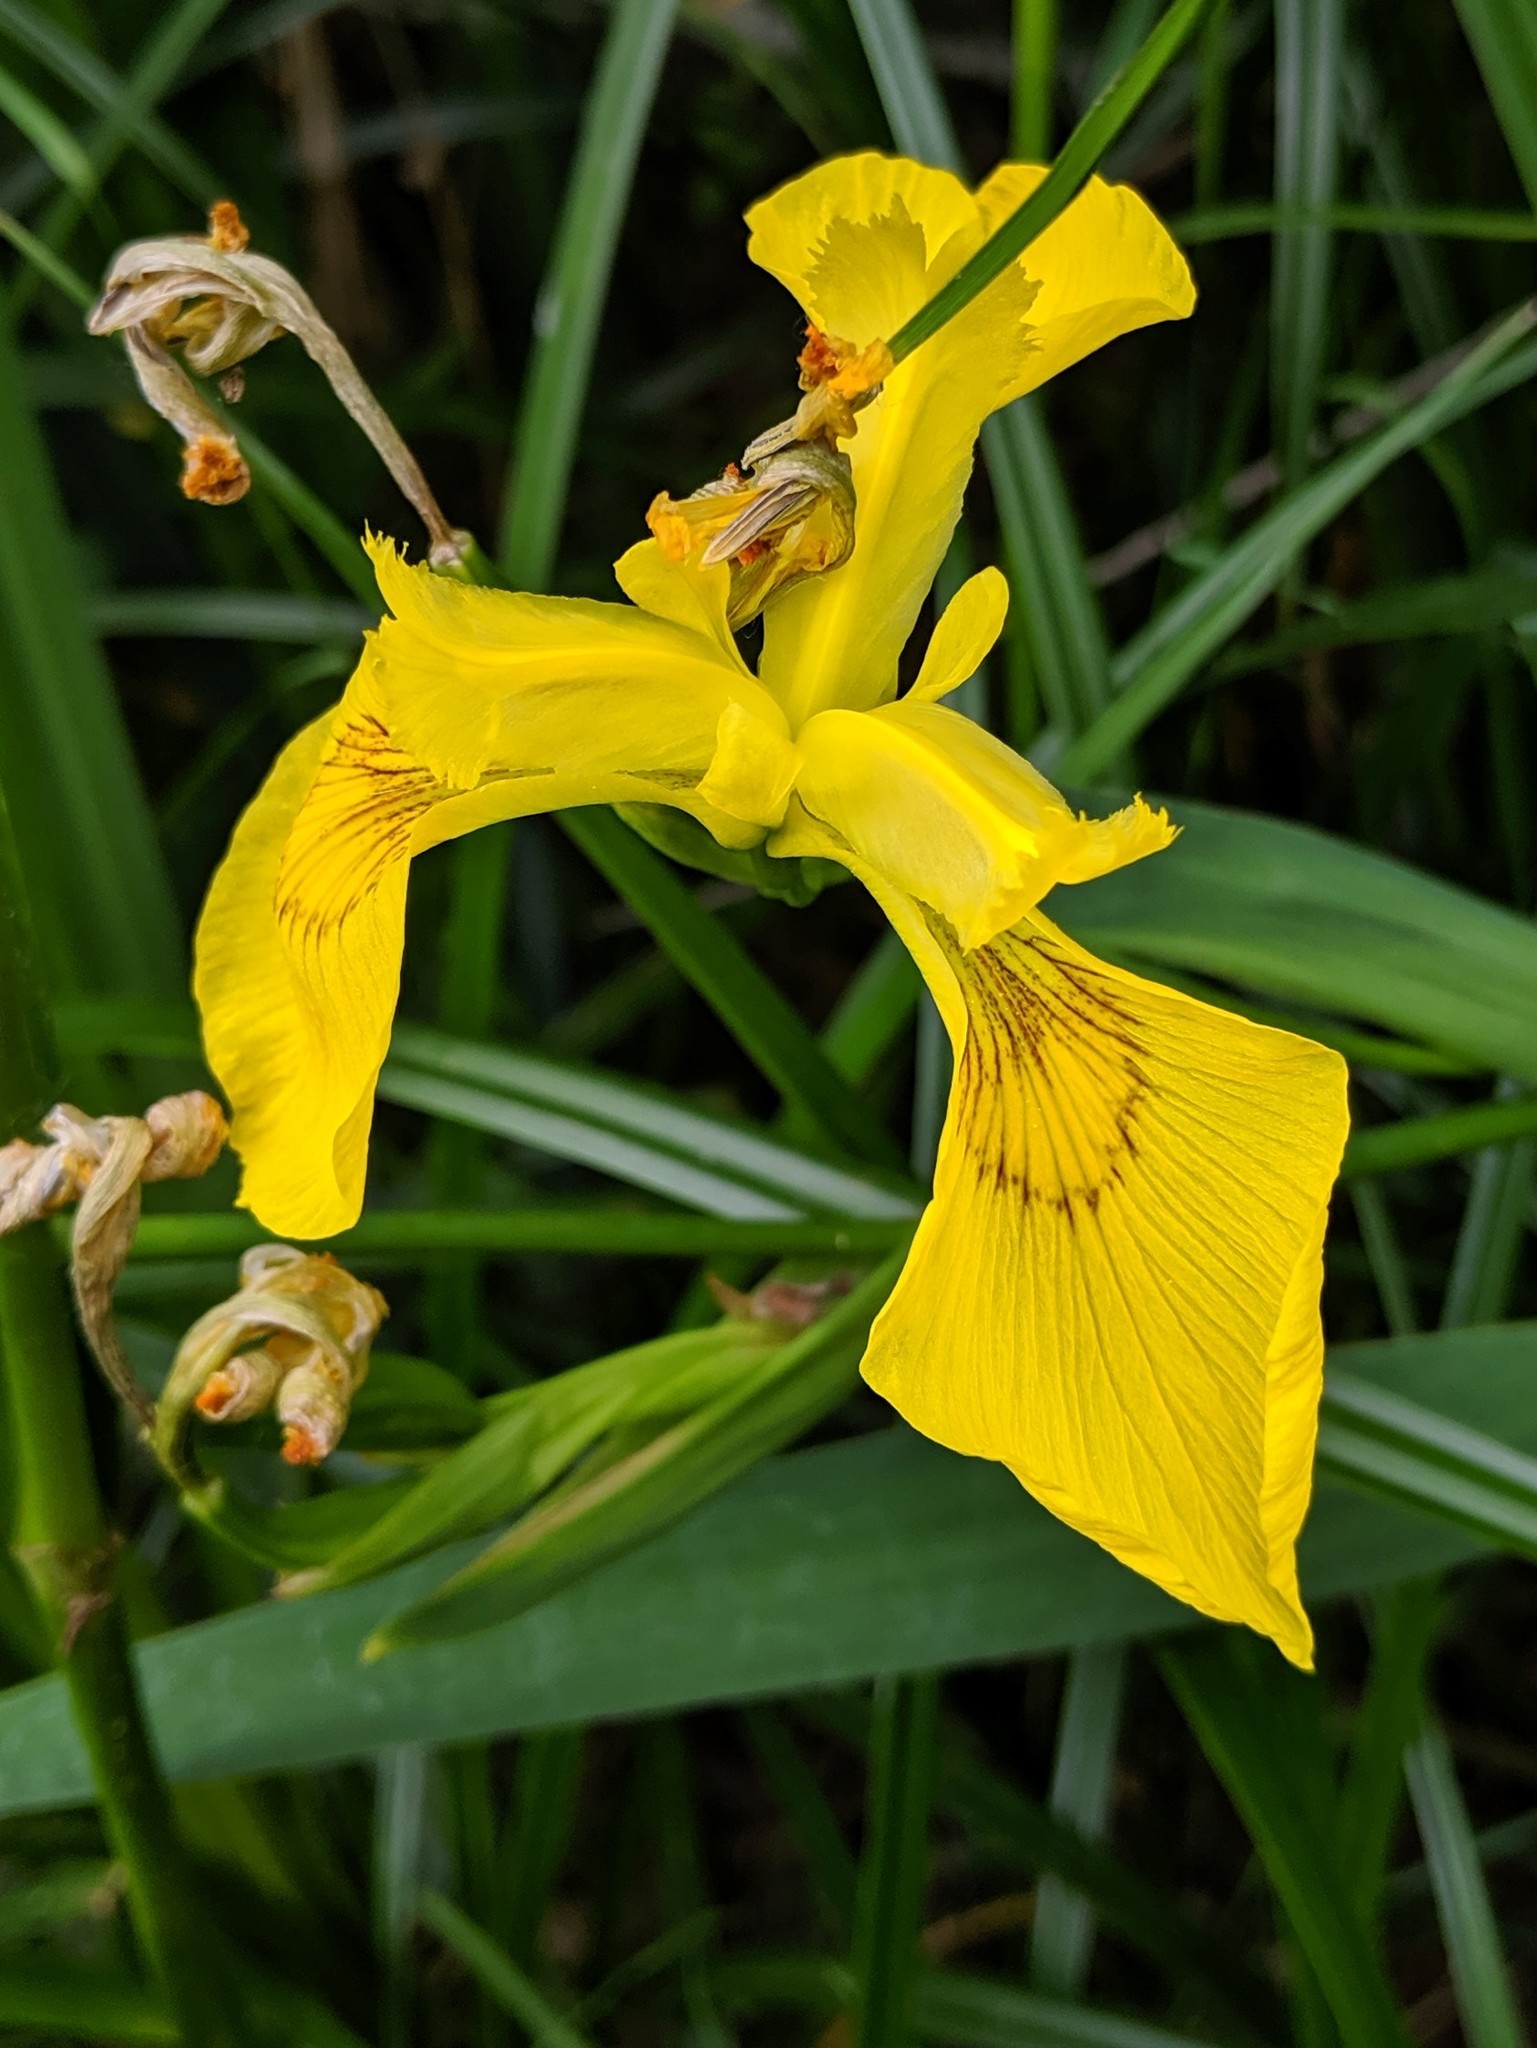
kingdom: Plantae
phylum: Tracheophyta
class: Liliopsida
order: Asparagales
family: Iridaceae
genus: Iris
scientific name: Iris pseudacorus
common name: Yellow flag
